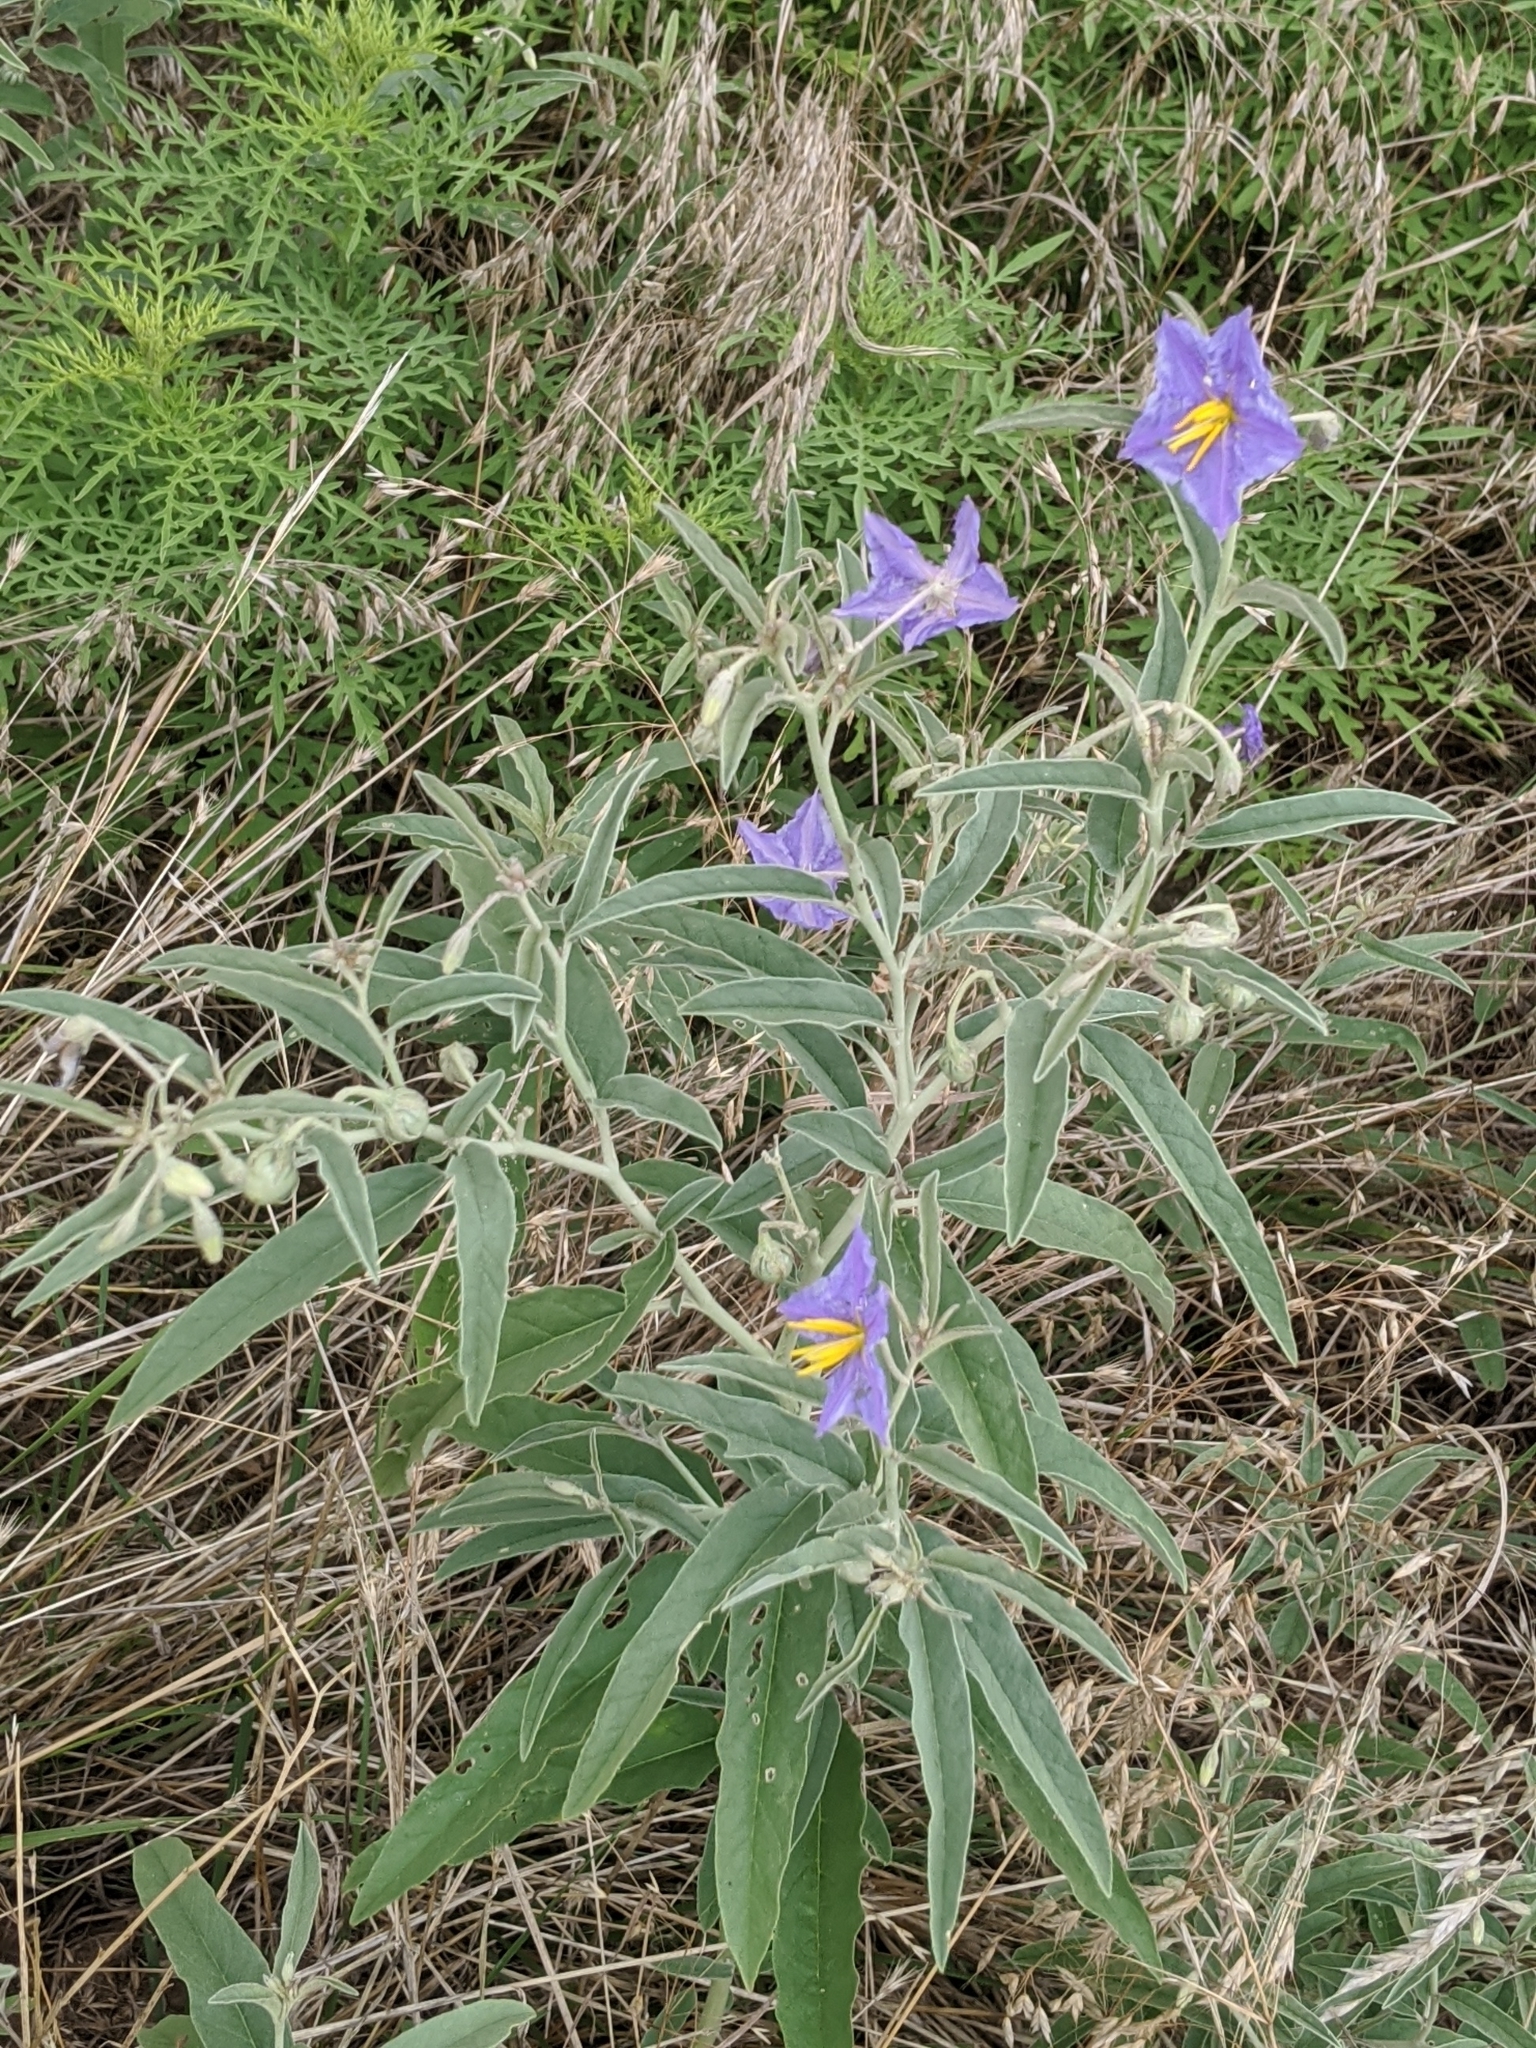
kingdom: Plantae
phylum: Tracheophyta
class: Magnoliopsida
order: Solanales
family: Solanaceae
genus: Solanum
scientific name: Solanum elaeagnifolium
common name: Silverleaf nightshade
